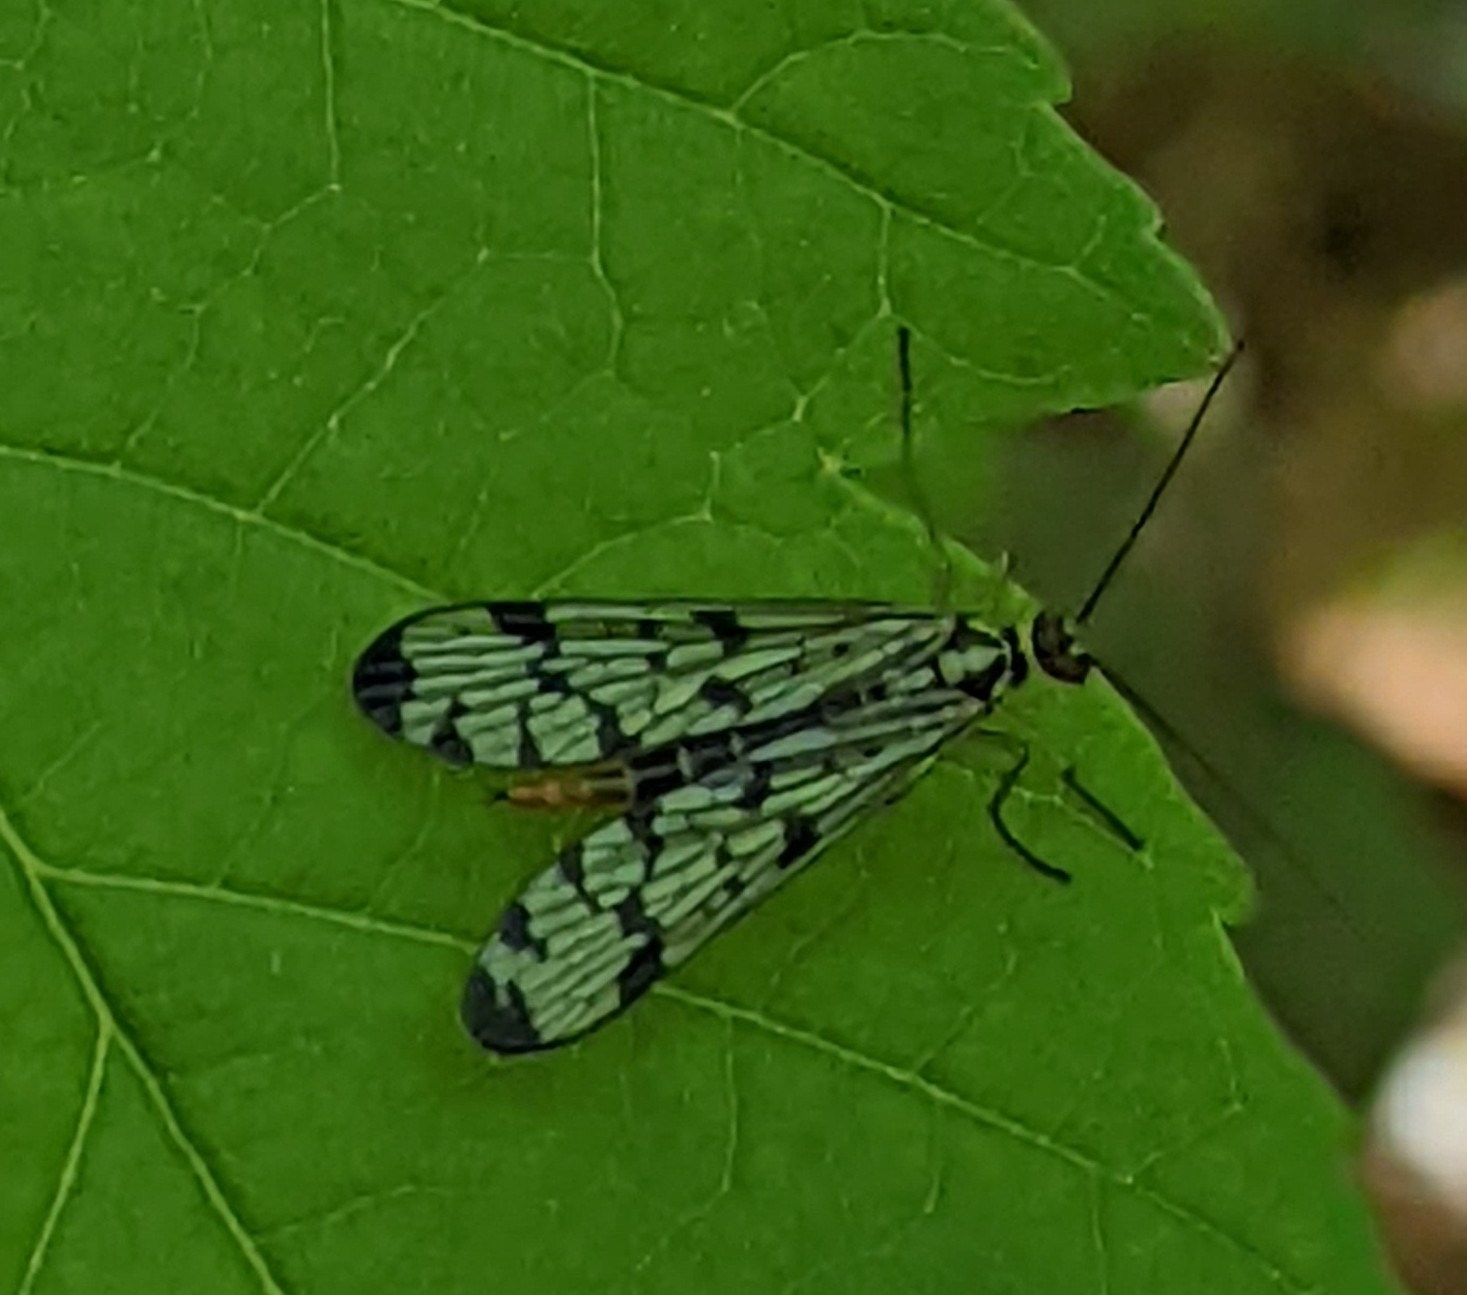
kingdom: Animalia
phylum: Arthropoda
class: Insecta
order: Mecoptera
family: Panorpidae
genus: Panorpa
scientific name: Panorpa germanica
